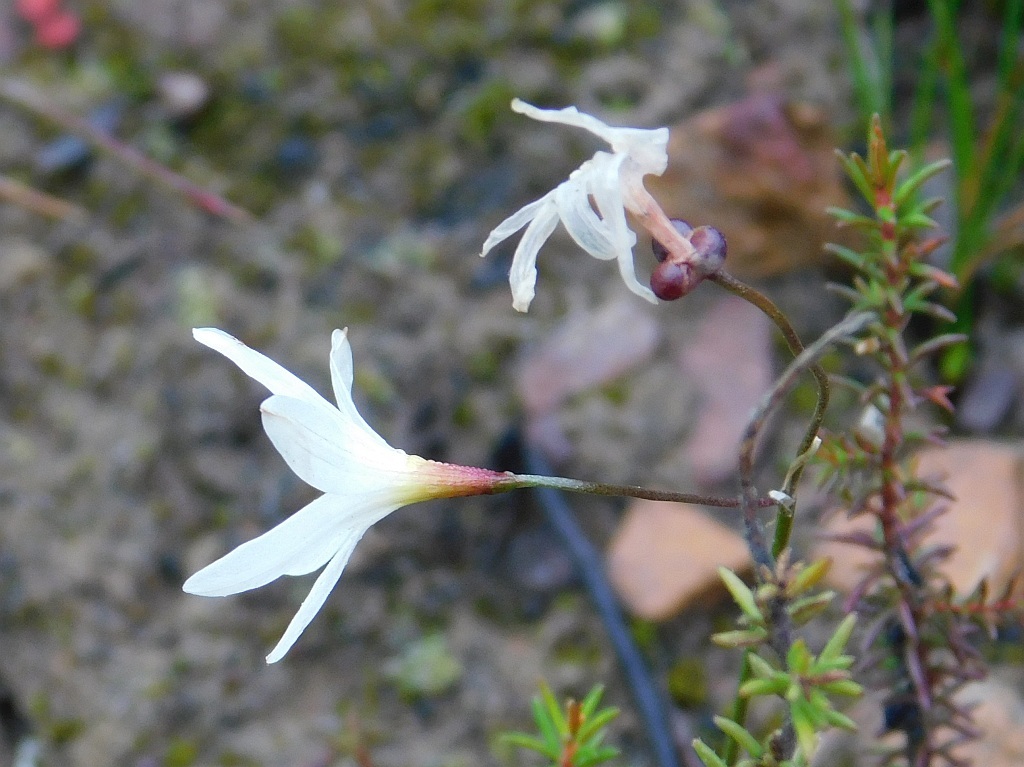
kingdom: Plantae
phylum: Tracheophyta
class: Liliopsida
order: Asparagales
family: Amaryllidaceae
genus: Strumaria
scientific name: Strumaria spiralis
